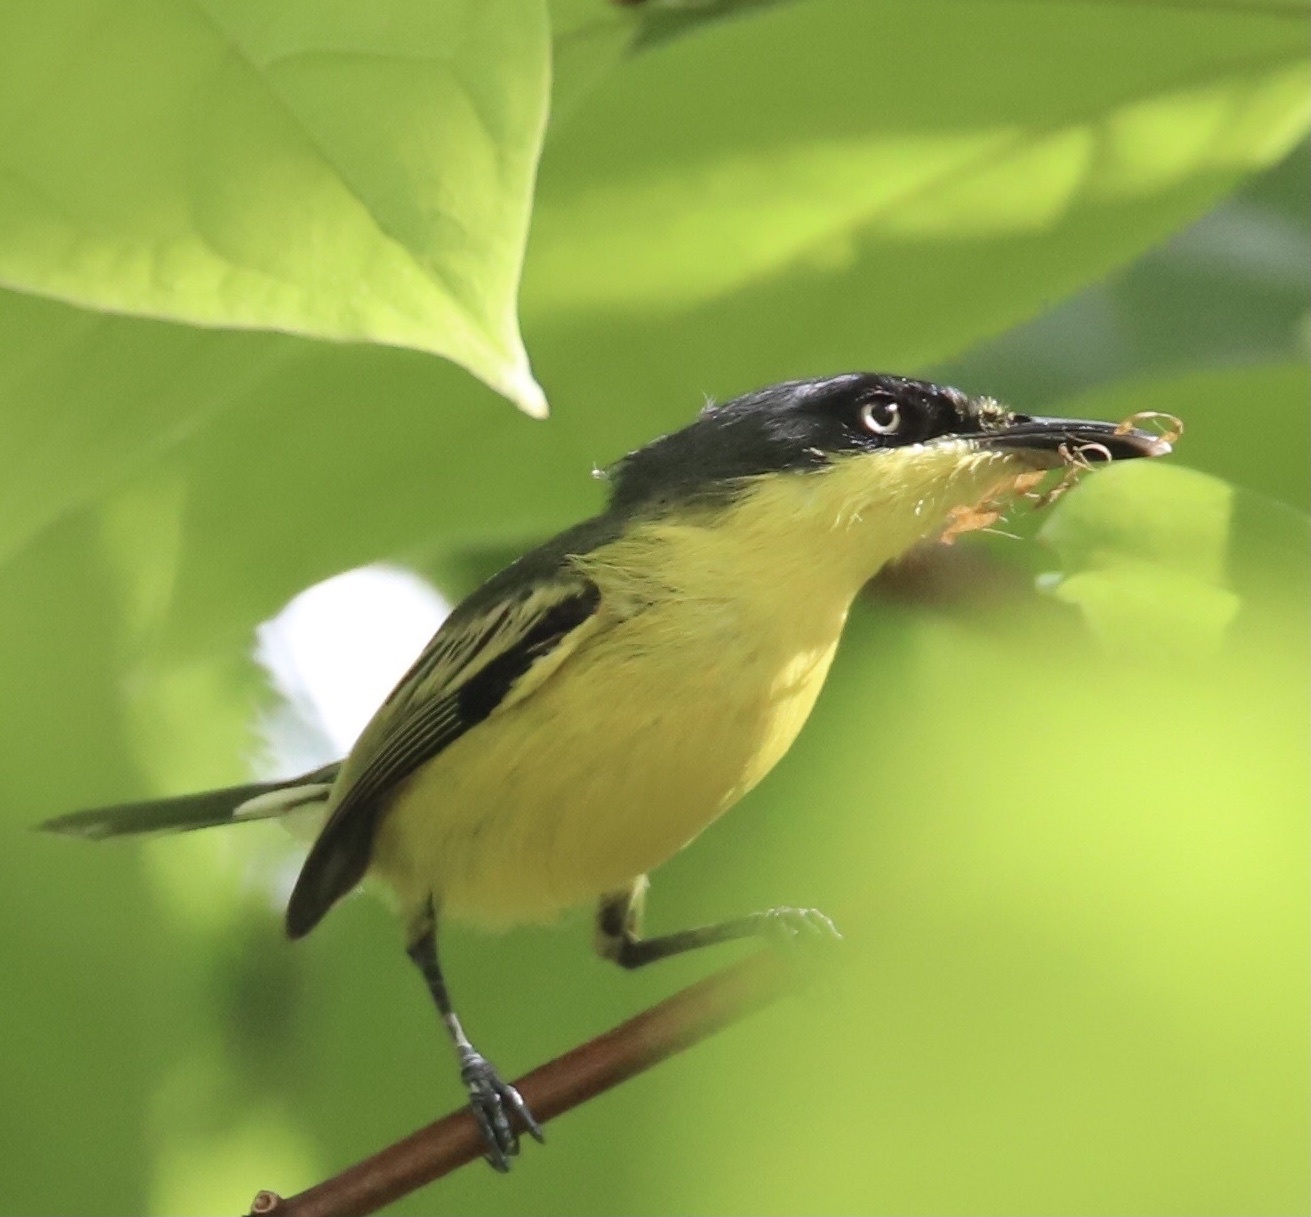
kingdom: Animalia
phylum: Chordata
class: Aves
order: Passeriformes
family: Tyrannidae
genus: Todirostrum
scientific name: Todirostrum cinereum
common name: Common tody-flycatcher
